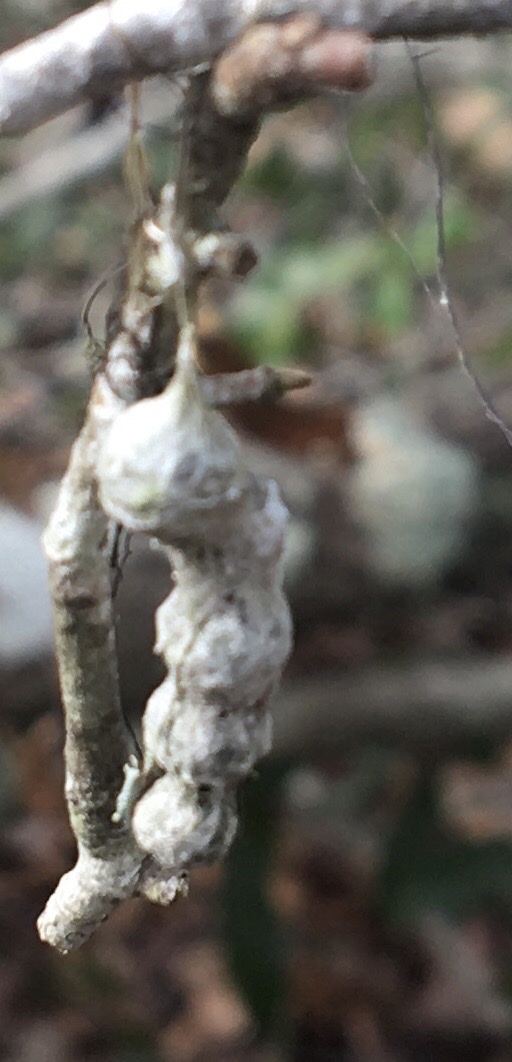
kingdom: Animalia
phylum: Arthropoda
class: Arachnida
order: Araneae
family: Araneidae
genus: Mecynogea
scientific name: Mecynogea lemniscata
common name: Orb weavers
